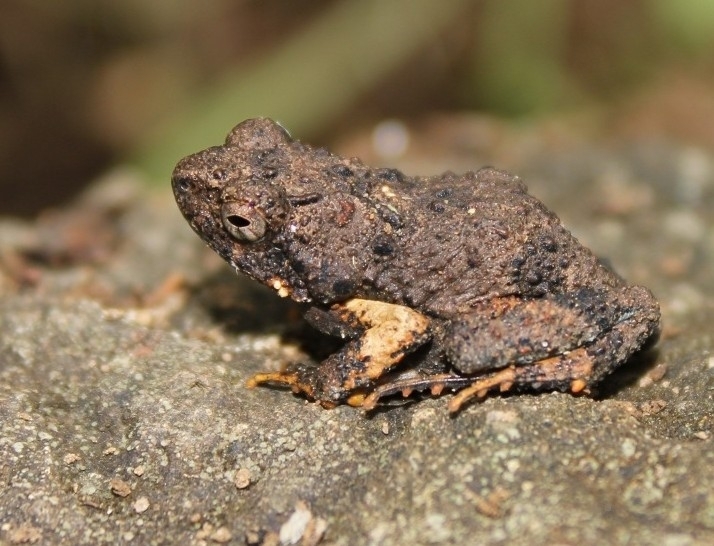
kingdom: Animalia
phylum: Chordata
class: Amphibia
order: Anura
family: Leptodactylidae
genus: Engystomops
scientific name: Engystomops pustulosus
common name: Tungara frog
